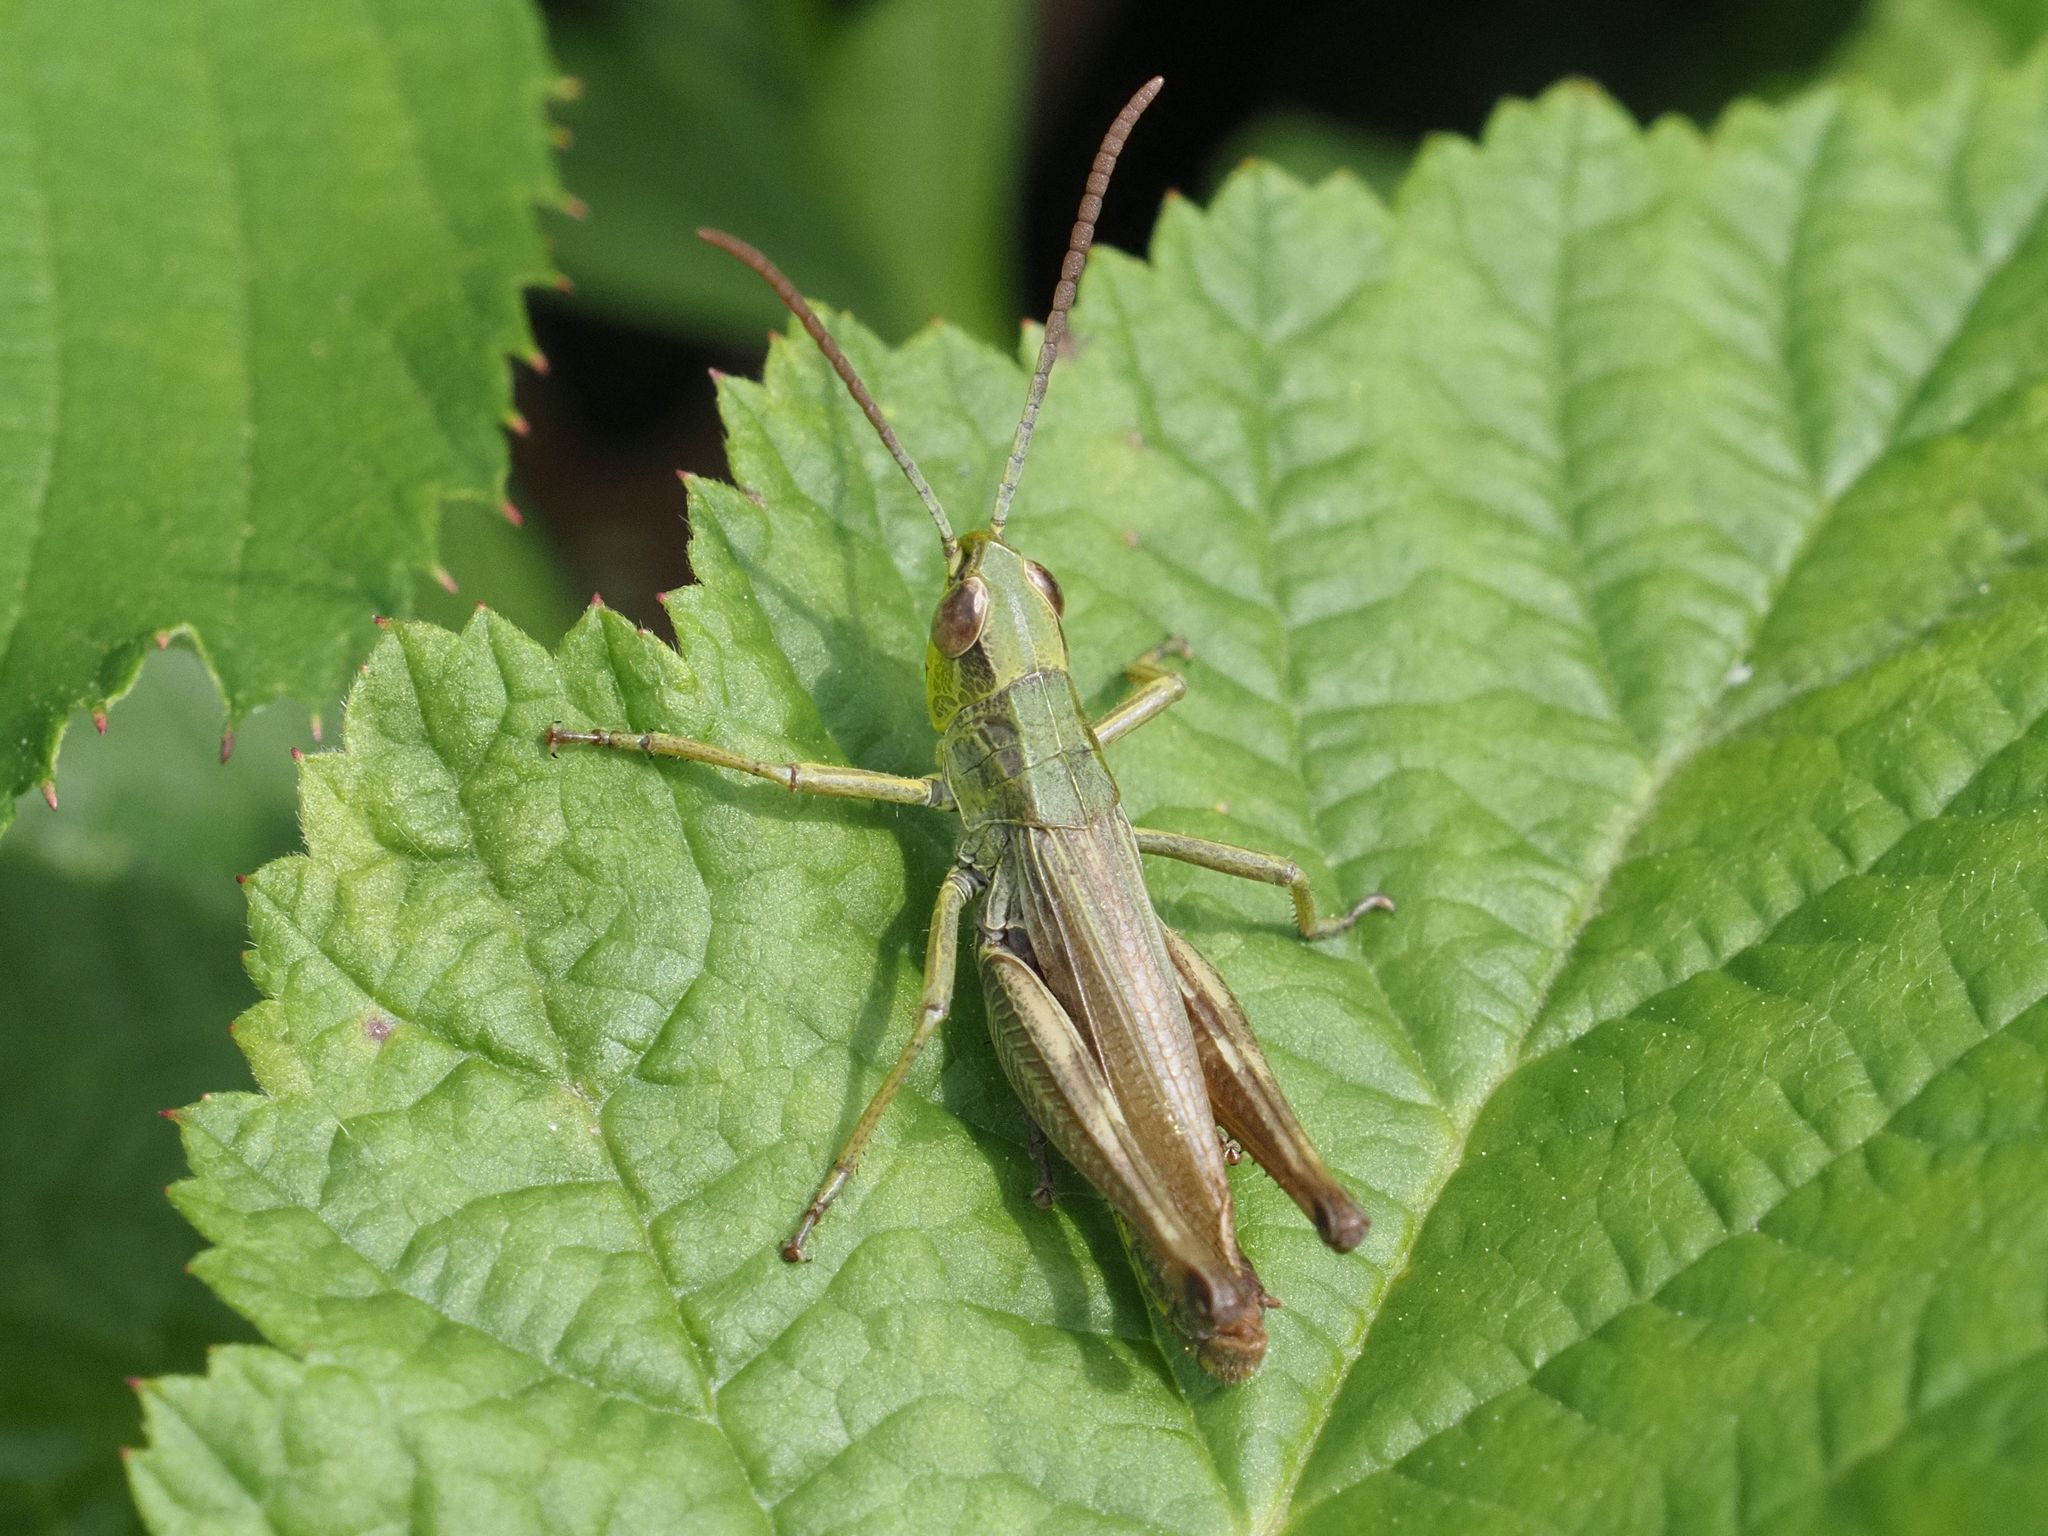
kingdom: Animalia
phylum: Arthropoda
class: Insecta
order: Orthoptera
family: Acrididae
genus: Pseudochorthippus
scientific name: Pseudochorthippus parallelus
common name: Meadow grasshopper
